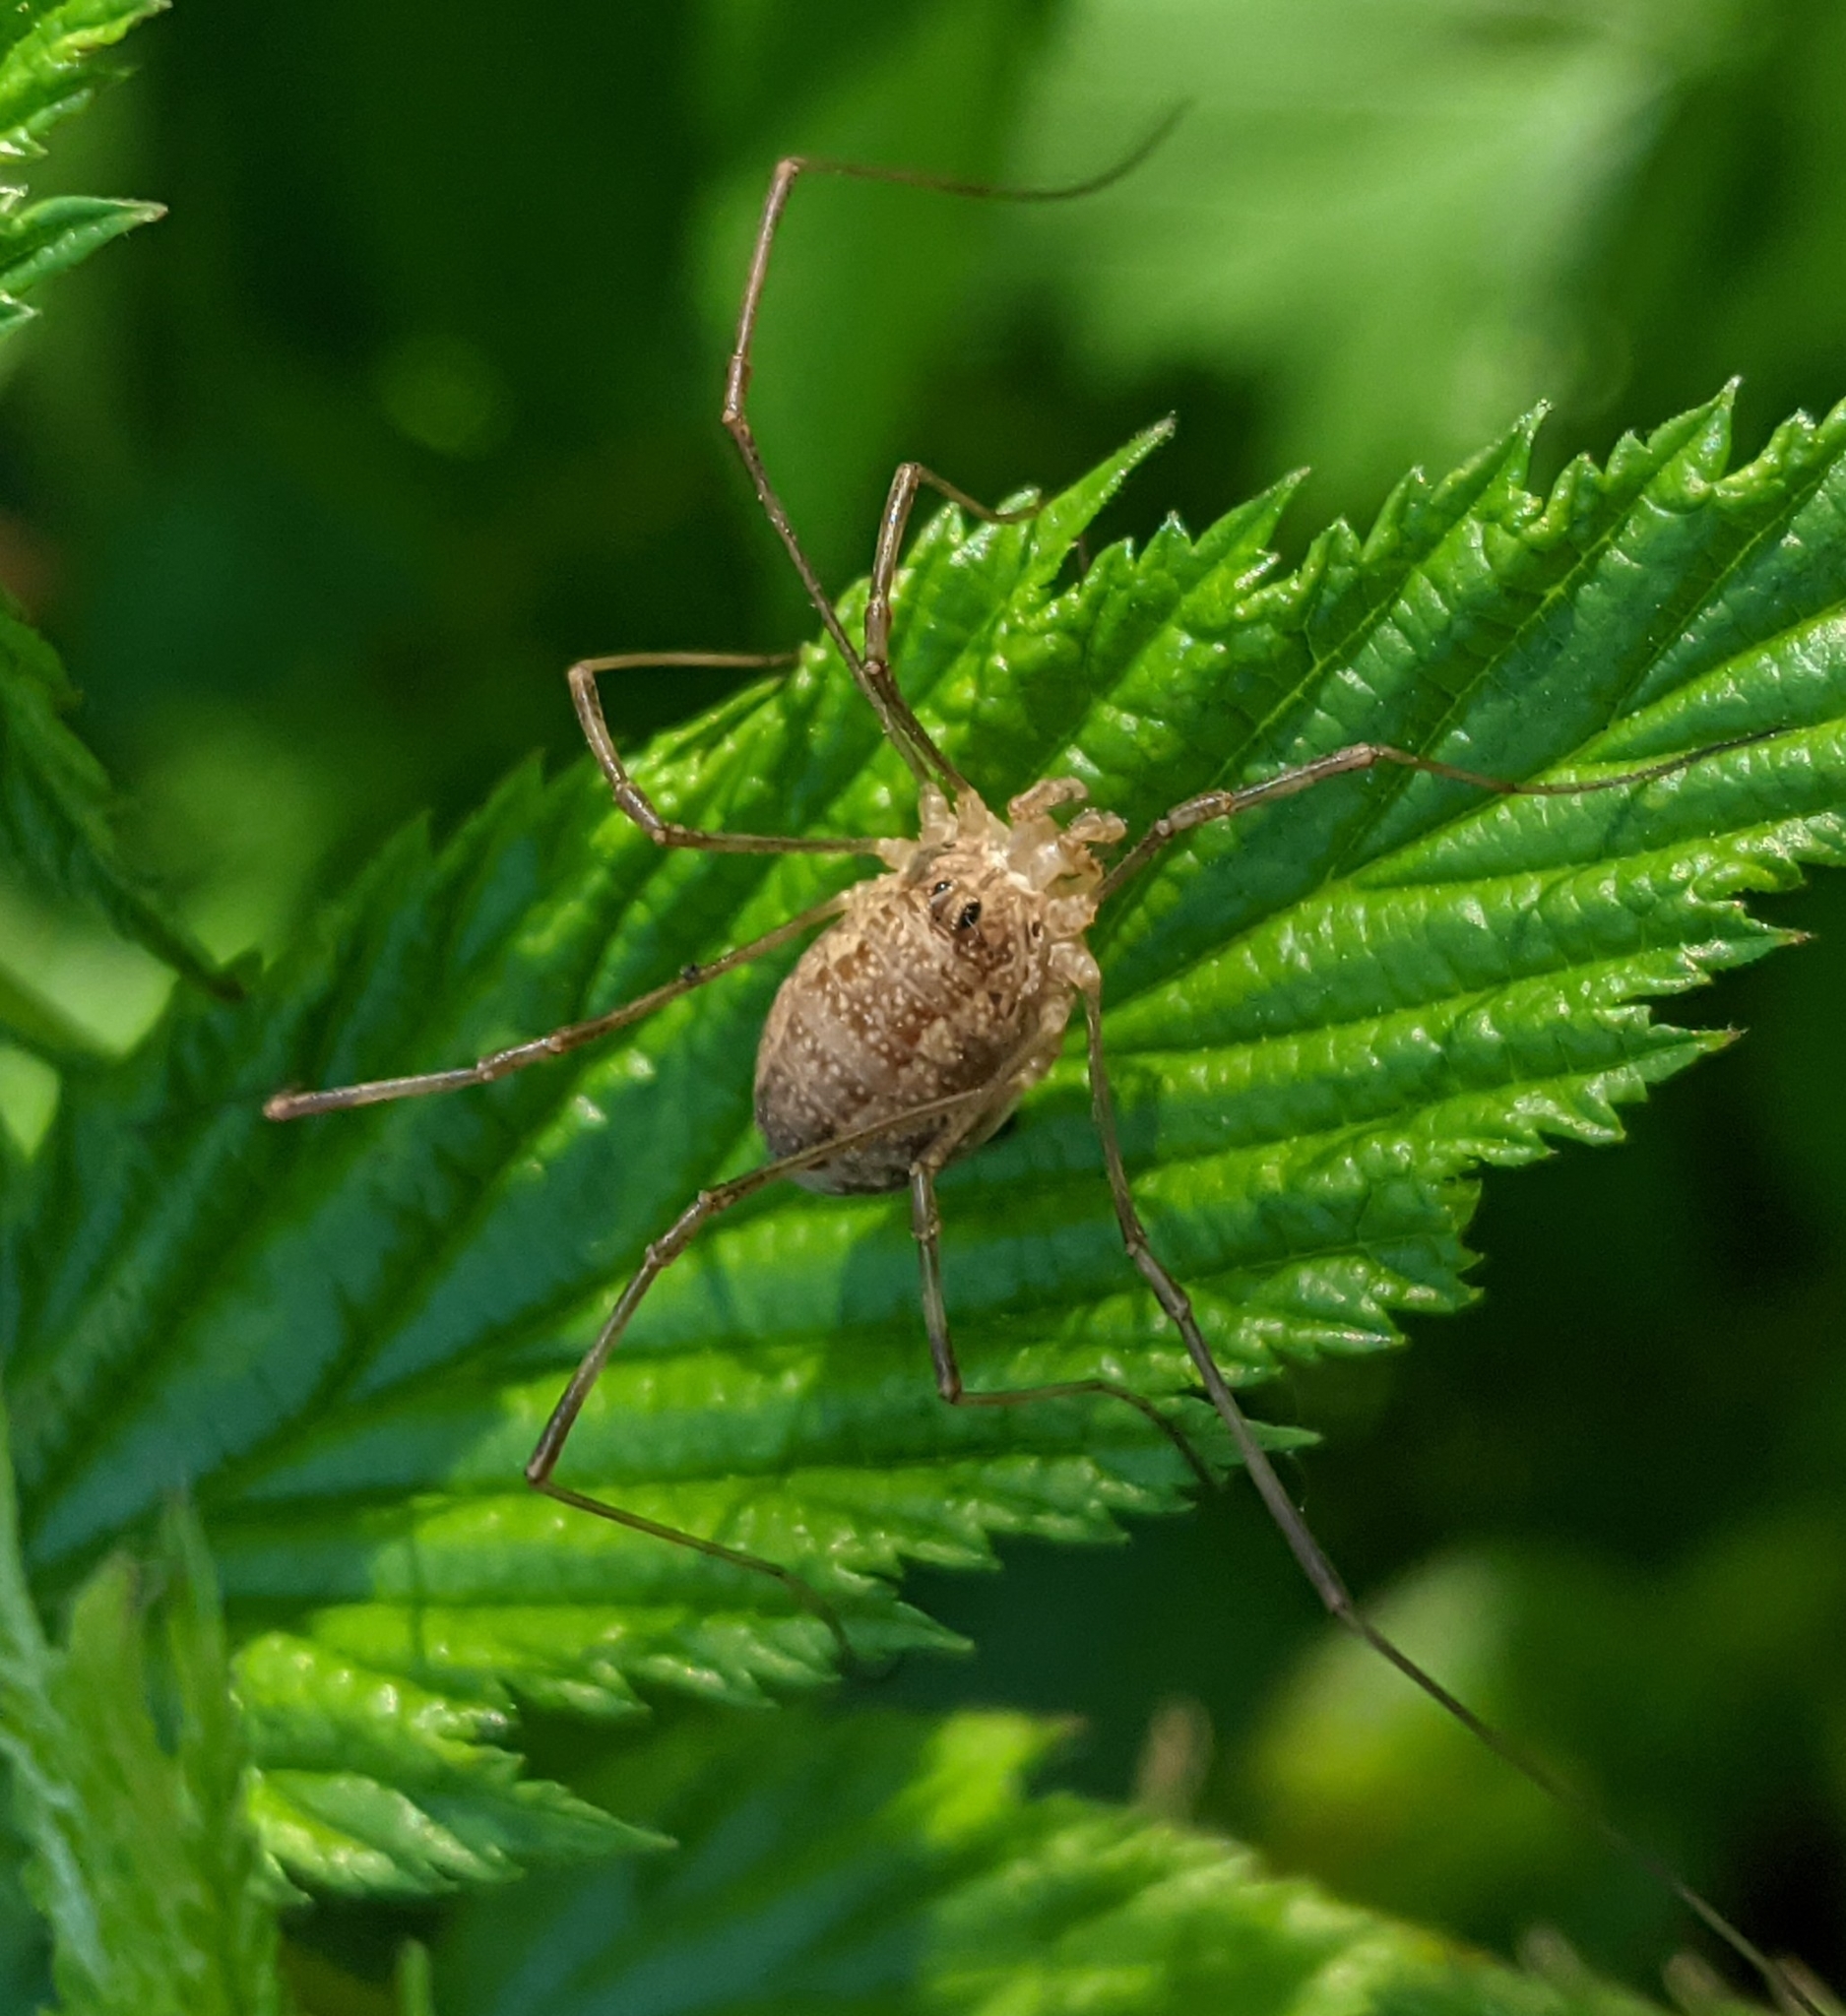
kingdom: Animalia
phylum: Arthropoda
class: Arachnida
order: Opiliones
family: Phalangiidae
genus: Rilaena
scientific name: Rilaena triangularis
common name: Spring harvestman
